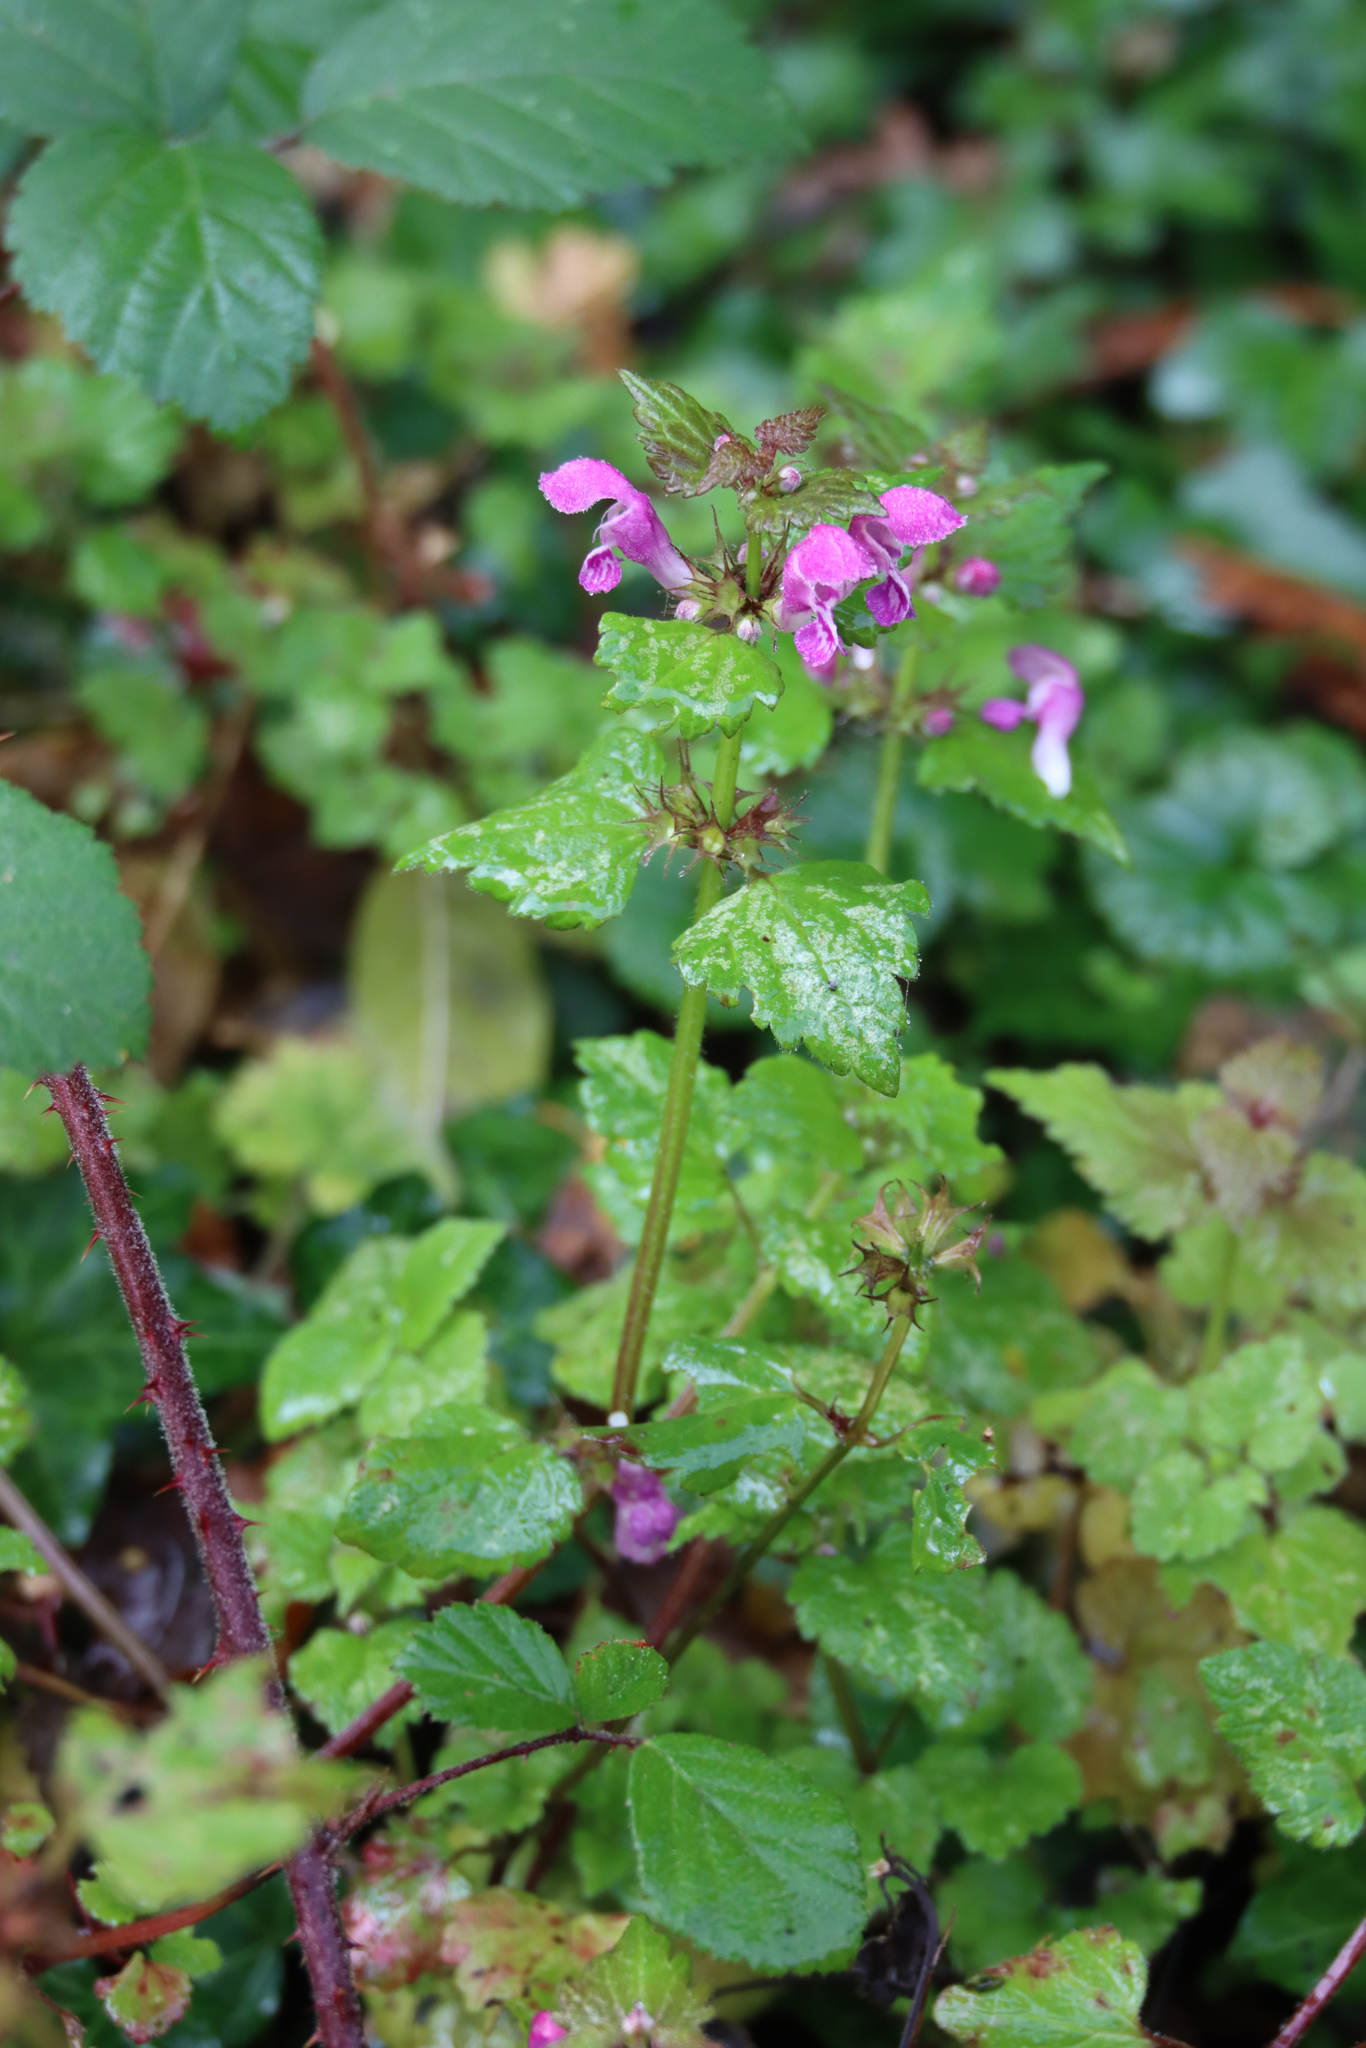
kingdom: Plantae
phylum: Tracheophyta
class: Magnoliopsida
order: Lamiales
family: Lamiaceae
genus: Lamium
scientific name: Lamium maculatum
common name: Spotted dead-nettle
